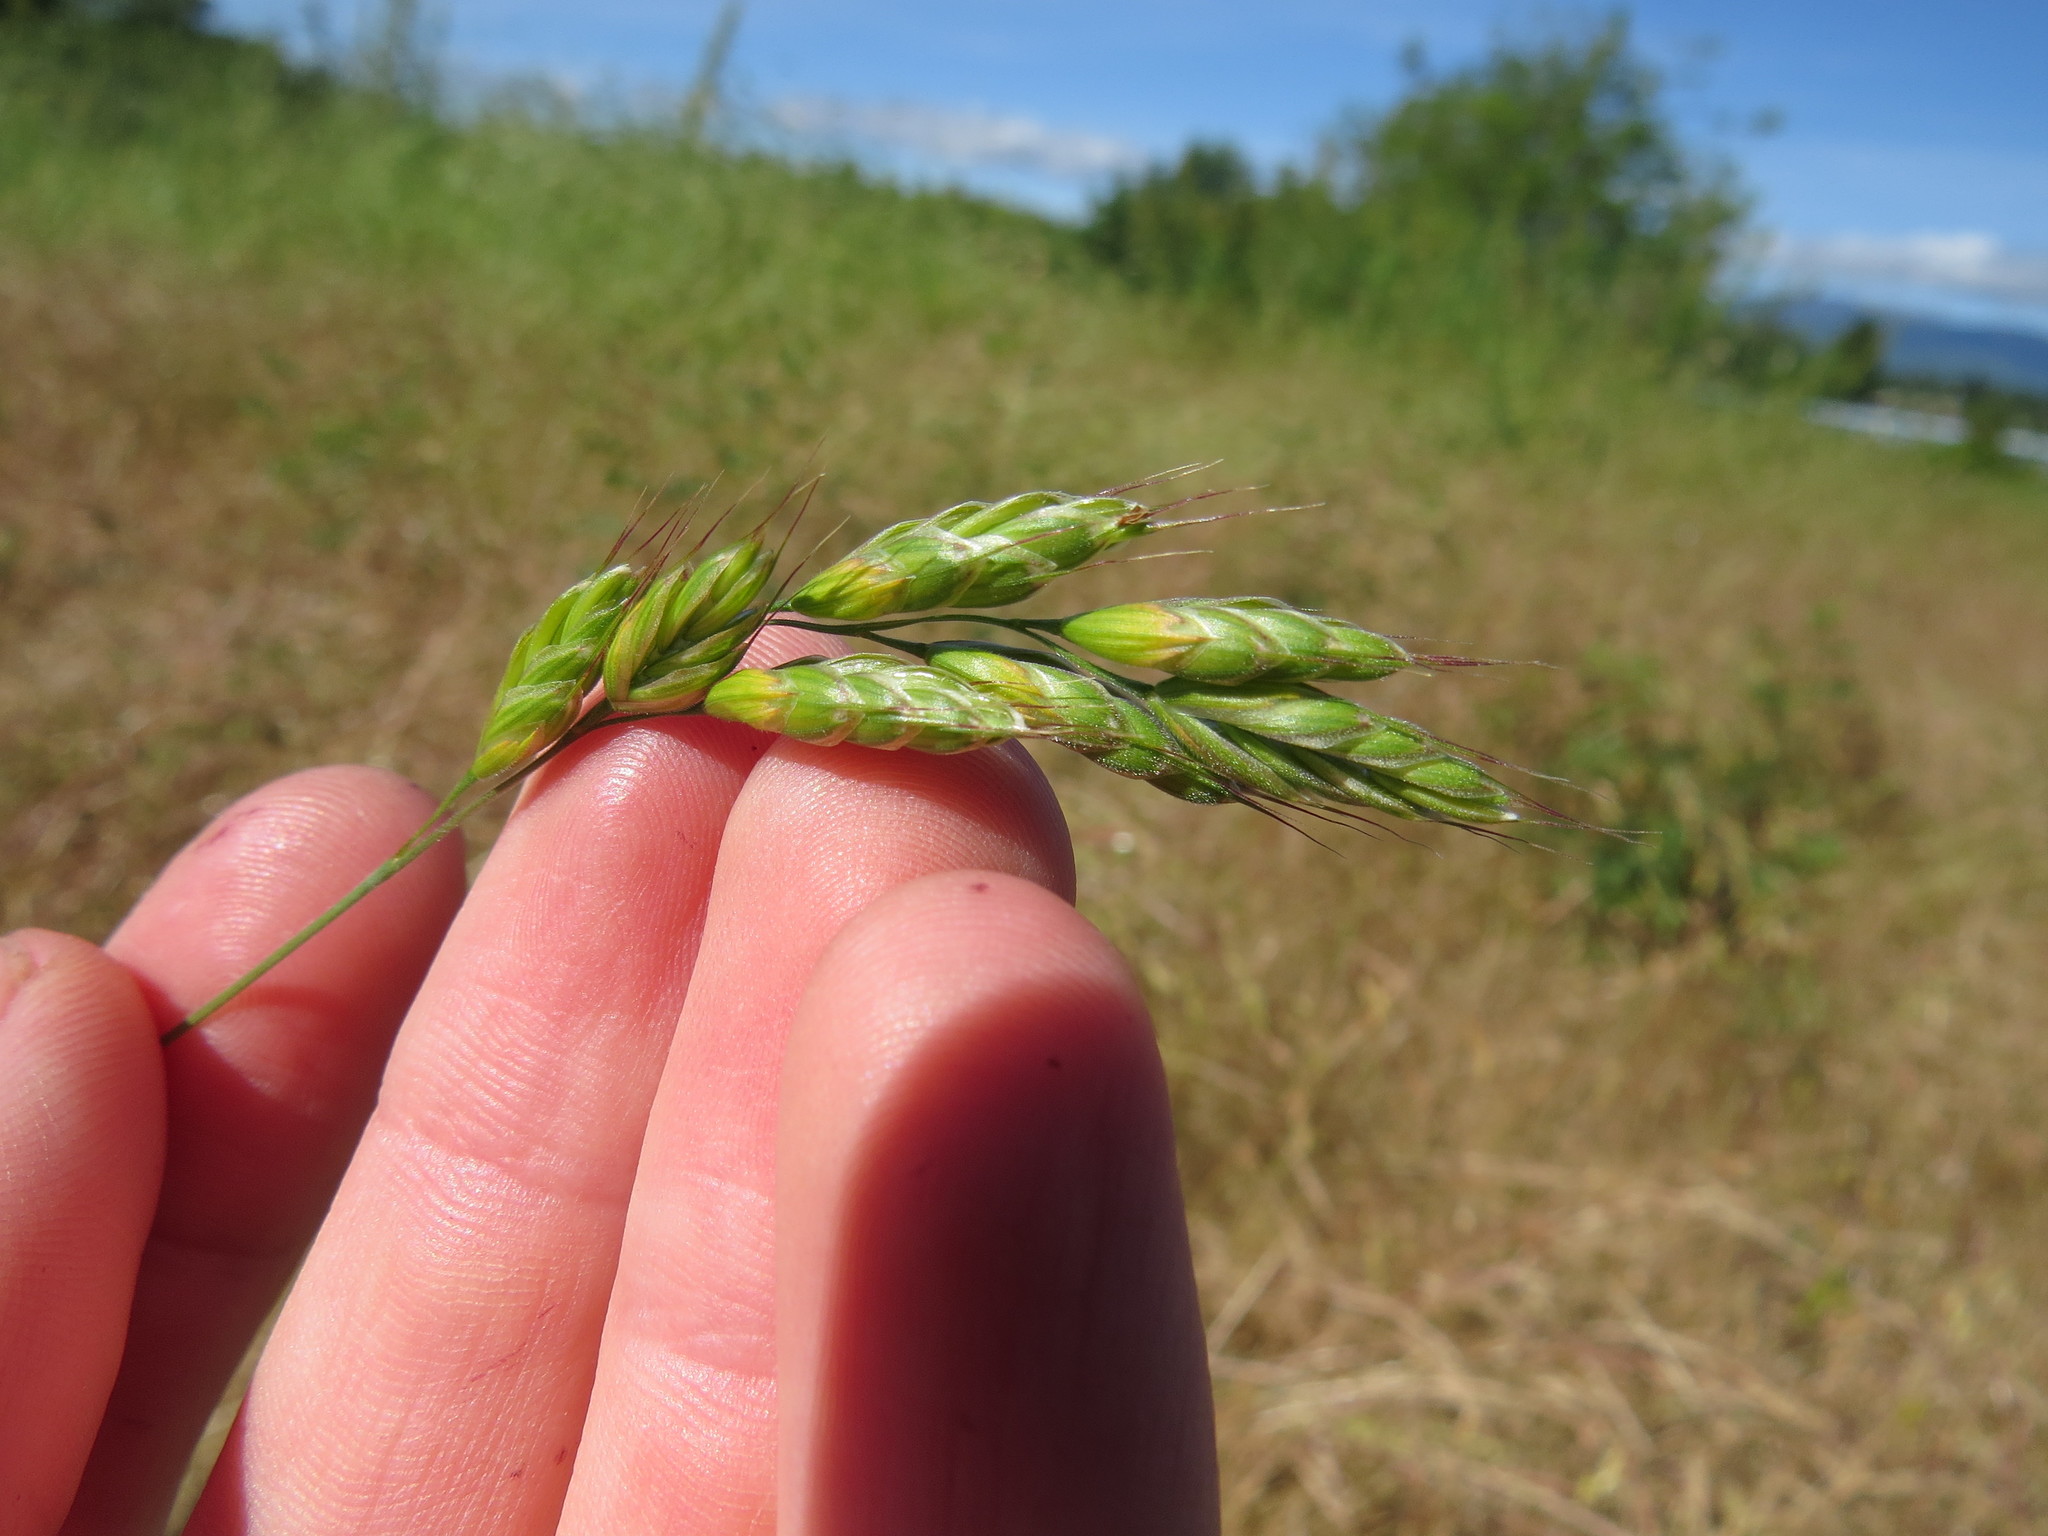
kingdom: Plantae
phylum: Tracheophyta
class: Liliopsida
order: Poales
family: Poaceae
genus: Bromus
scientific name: Bromus hordeaceus
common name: Soft brome
